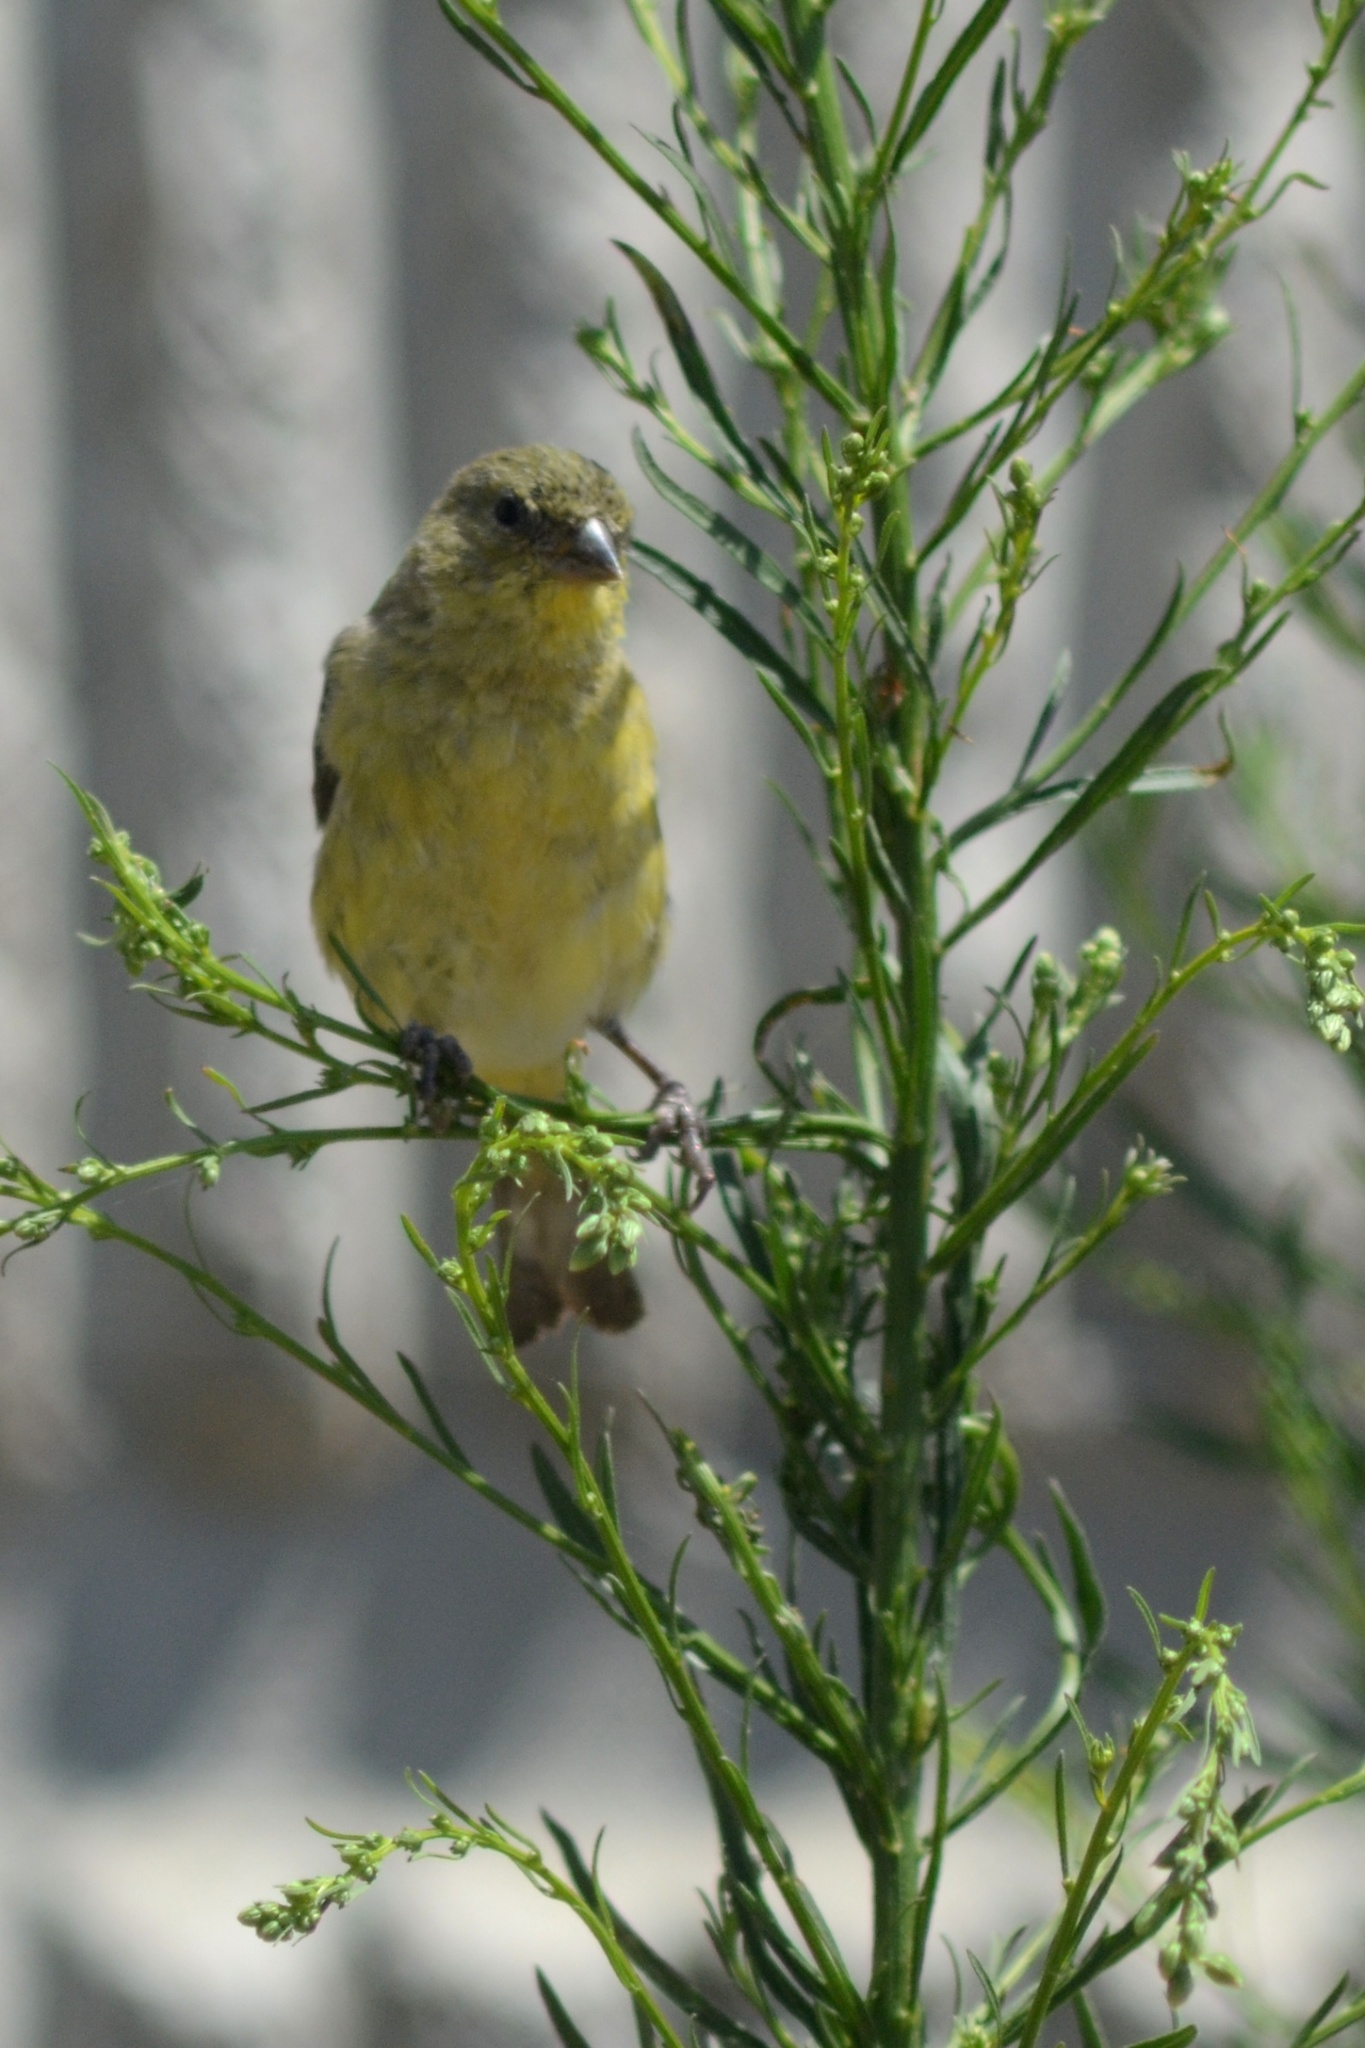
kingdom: Animalia
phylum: Chordata
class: Aves
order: Passeriformes
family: Fringillidae
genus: Spinus
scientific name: Spinus psaltria
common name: Lesser goldfinch
